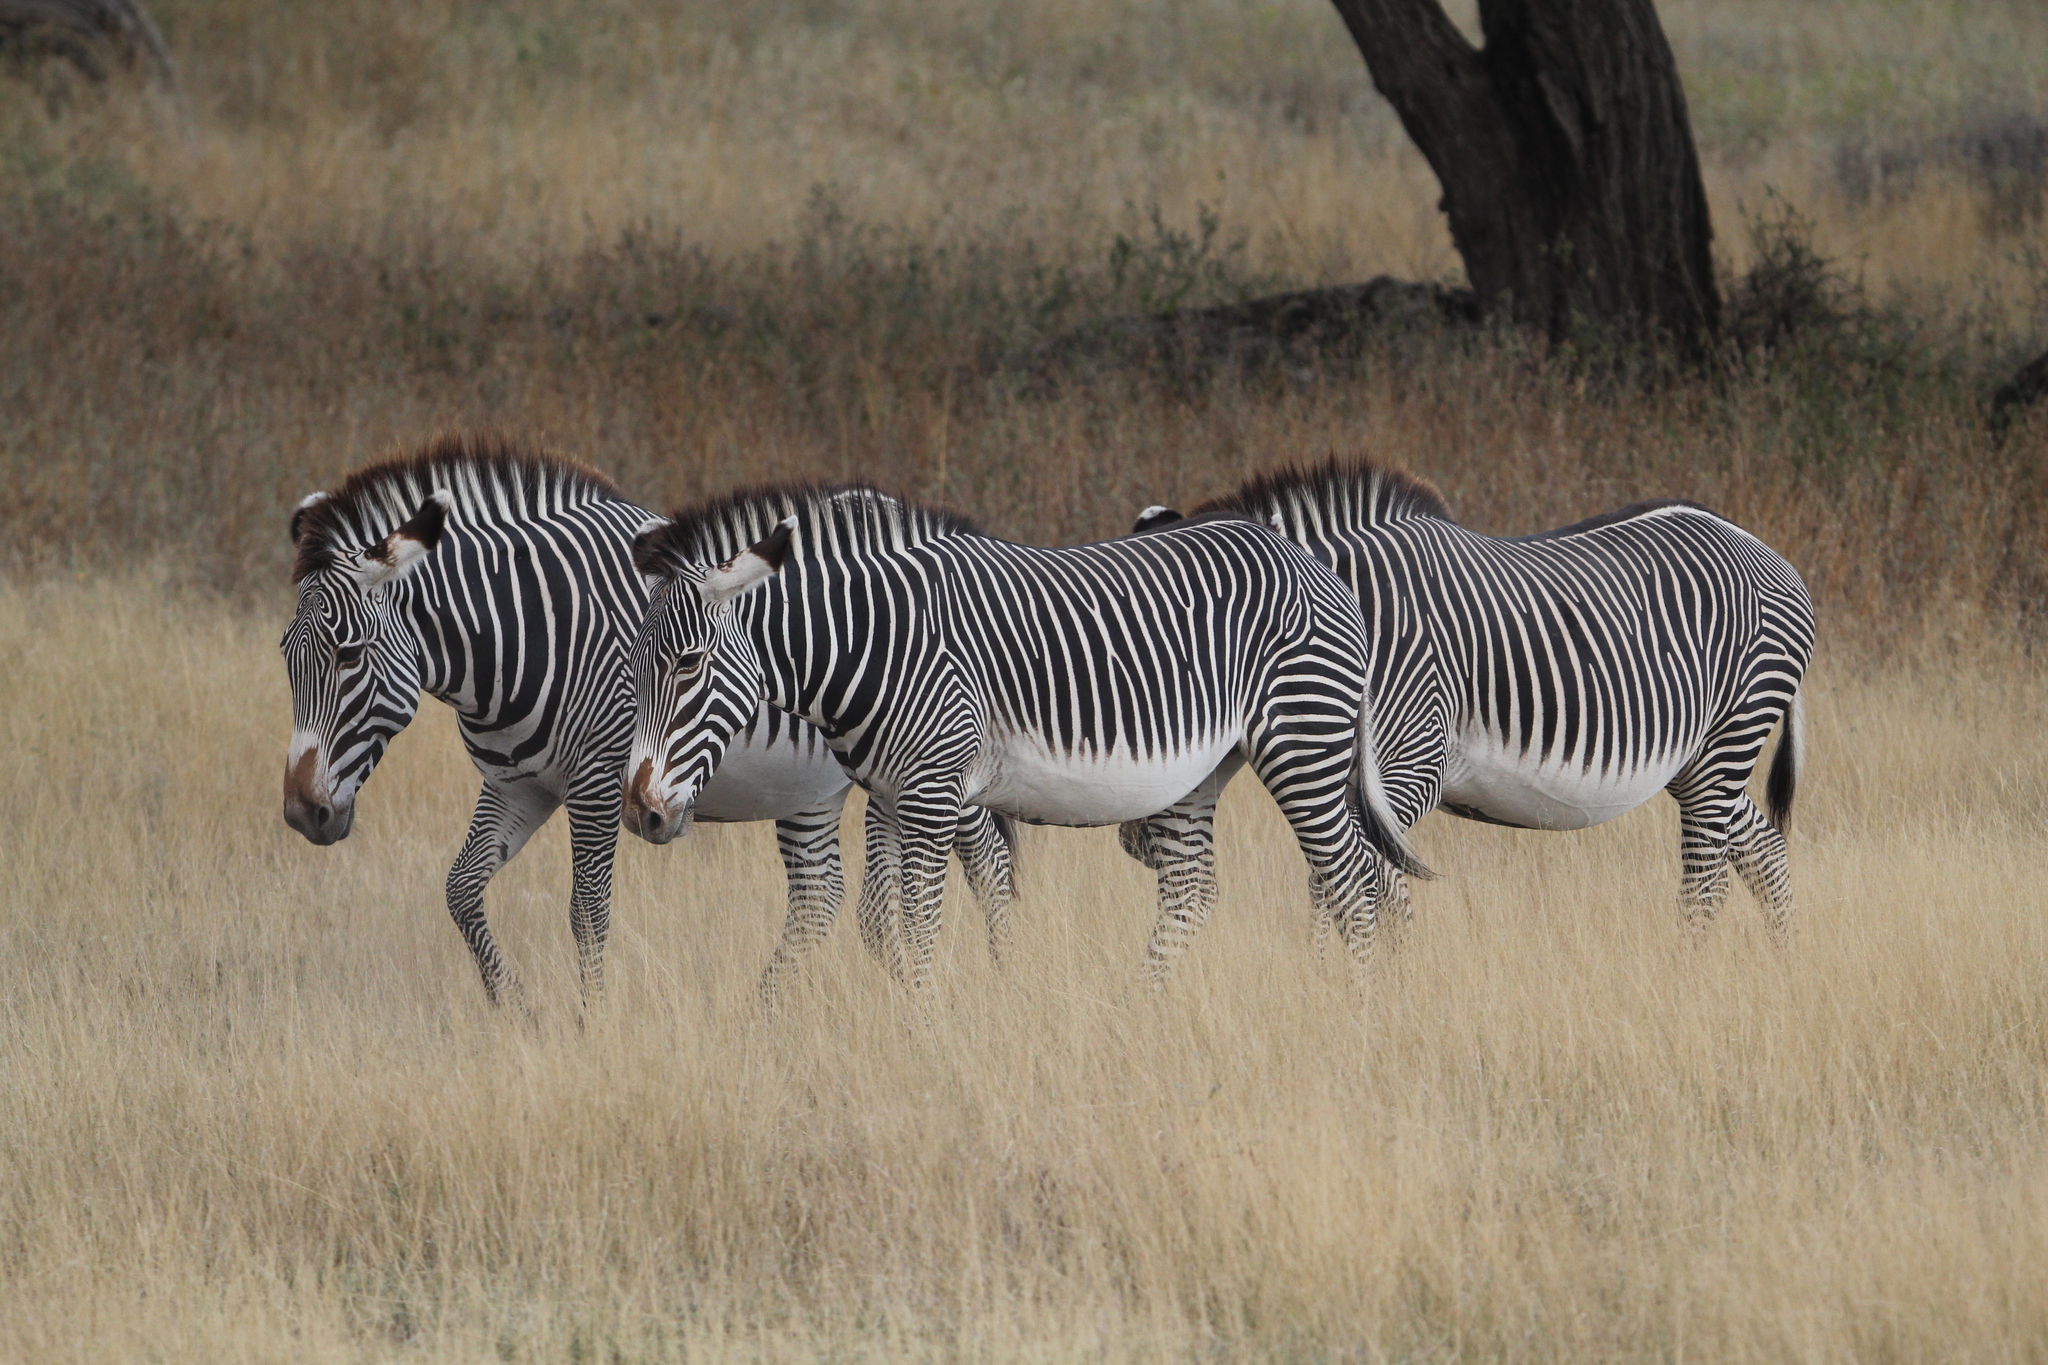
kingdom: Animalia
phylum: Chordata
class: Mammalia
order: Perissodactyla
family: Equidae
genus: Equus
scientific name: Equus grevyi
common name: Grevy's zebra
